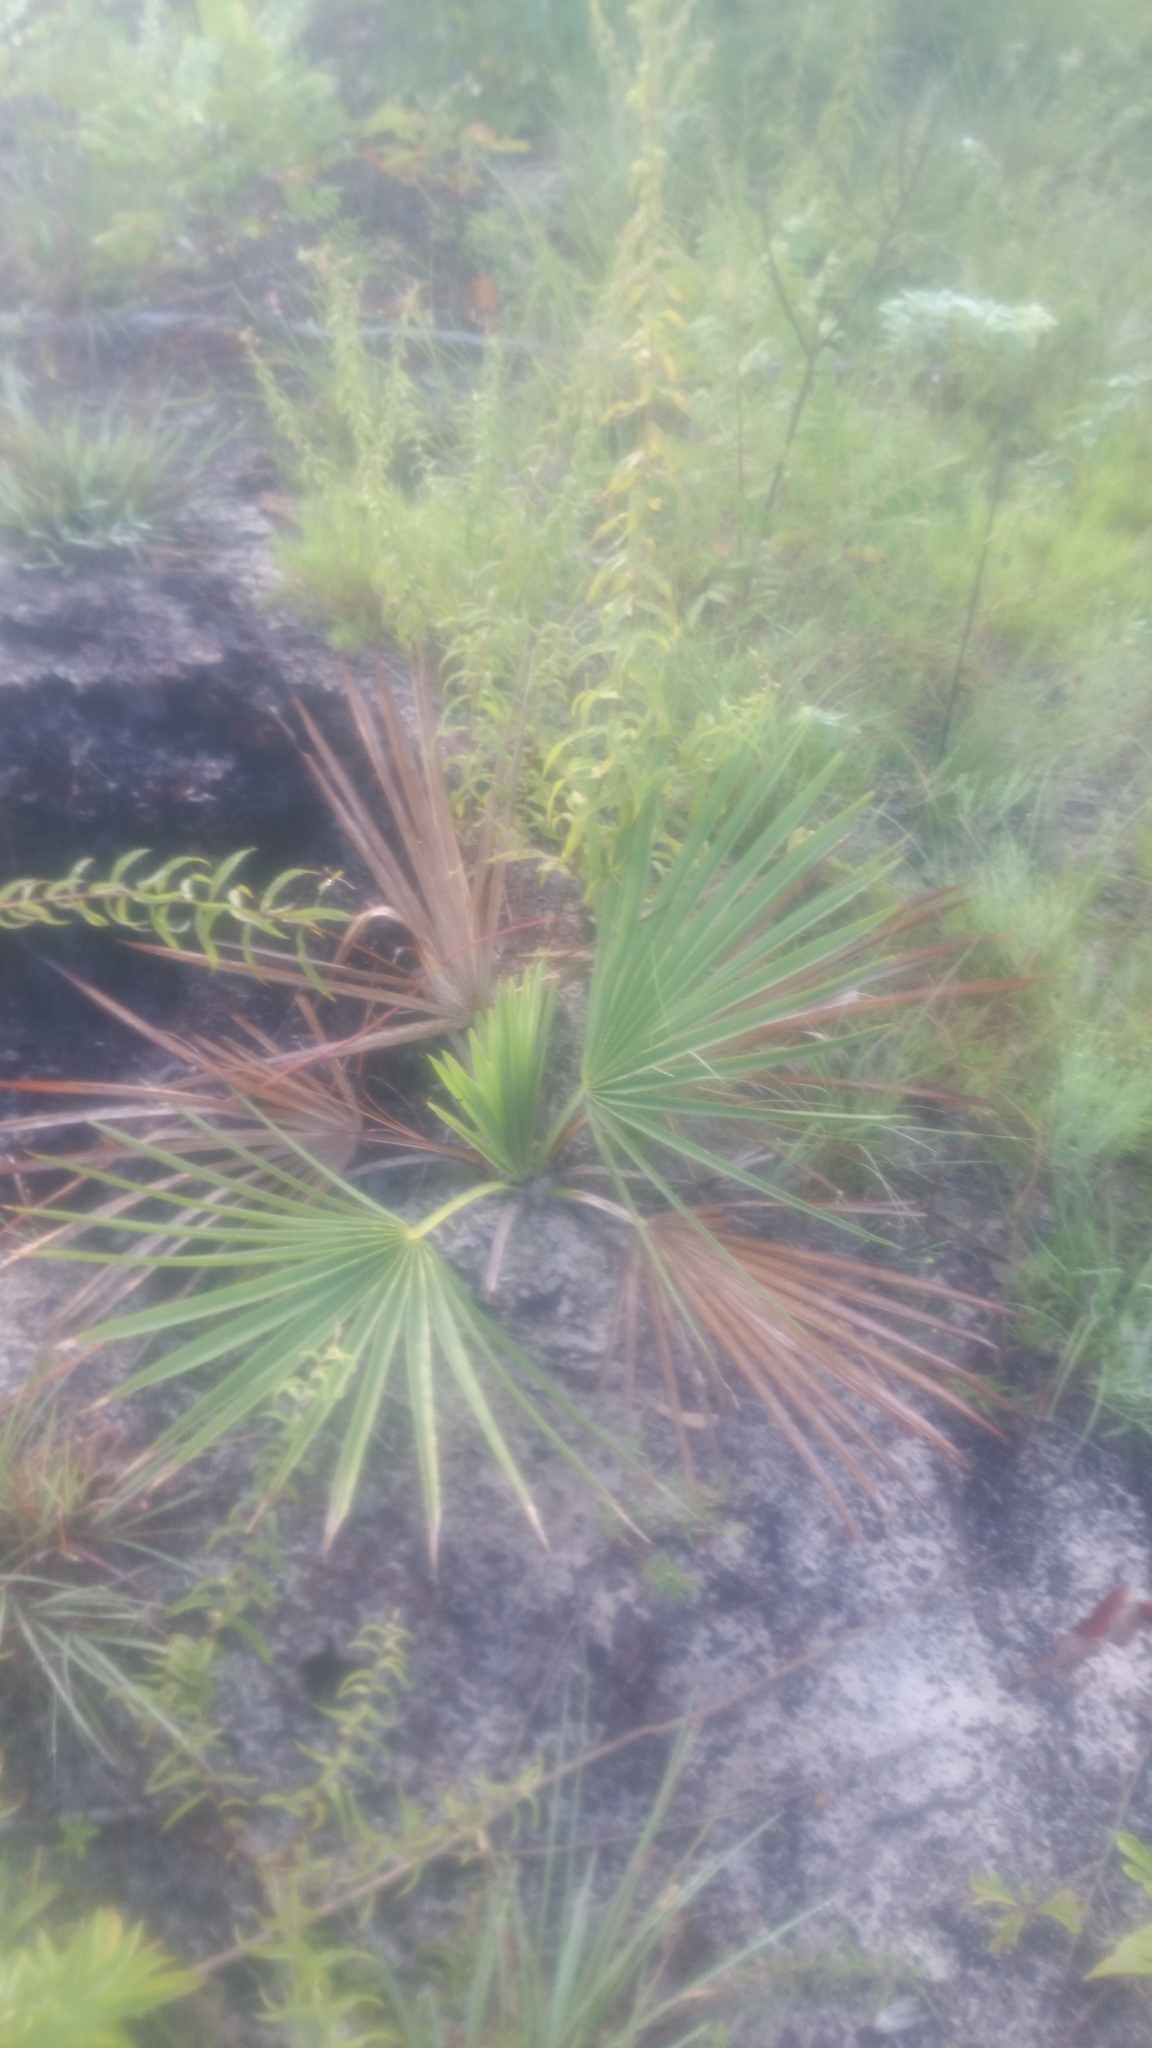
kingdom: Plantae
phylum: Tracheophyta
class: Liliopsida
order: Arecales
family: Arecaceae
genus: Sabal
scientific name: Sabal minor
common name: Dwarf palmetto
